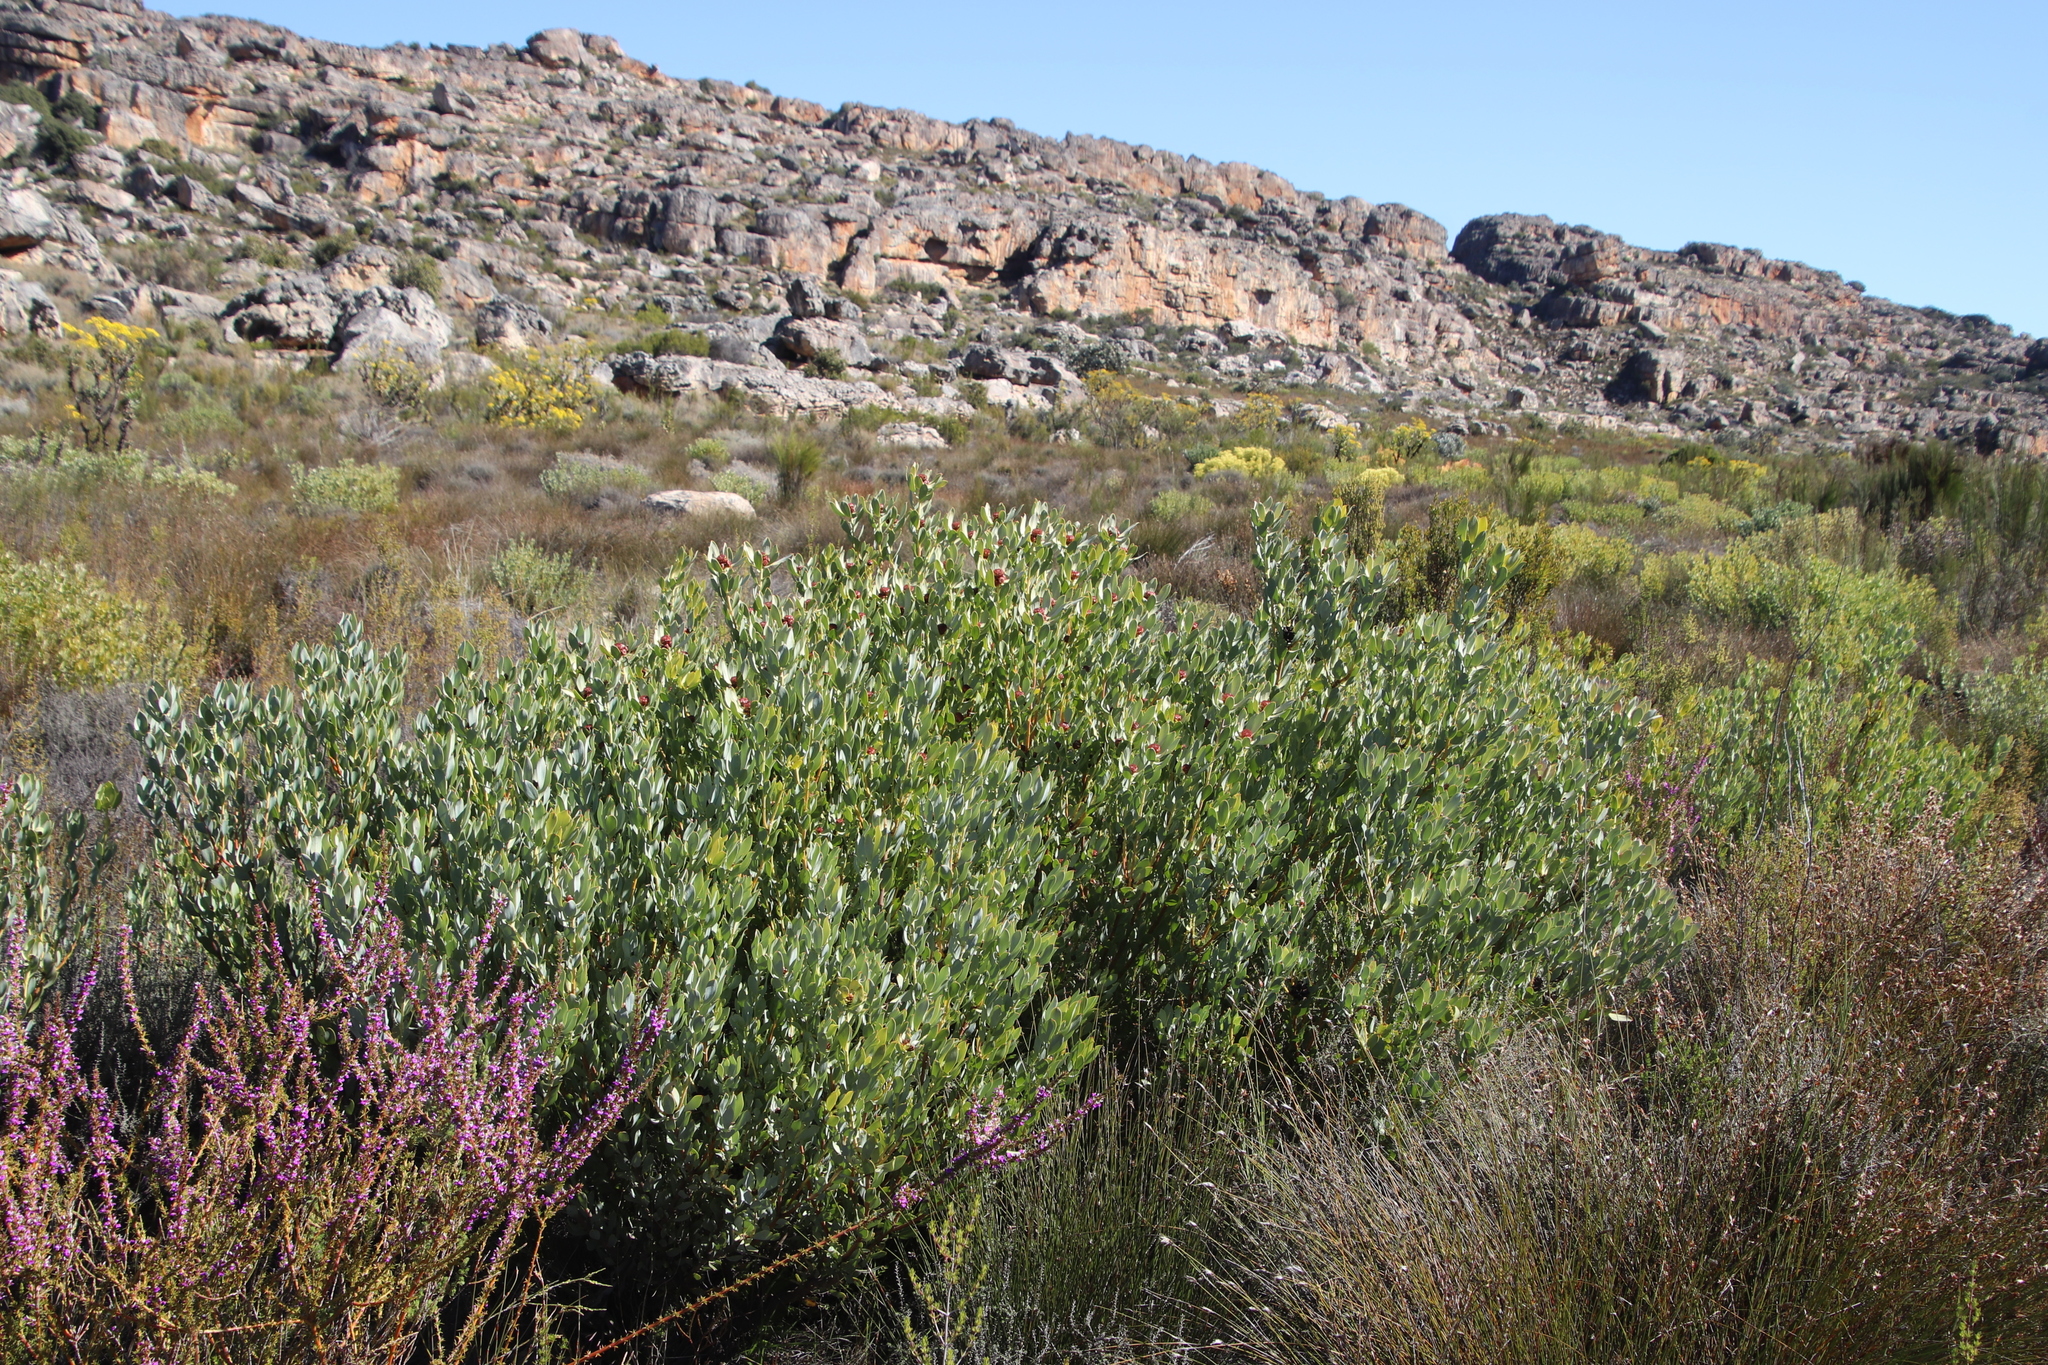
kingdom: Plantae
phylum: Tracheophyta
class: Magnoliopsida
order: Proteales
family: Proteaceae
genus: Leucadendron
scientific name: Leucadendron loranthifolium
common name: Green-flower sunbush
